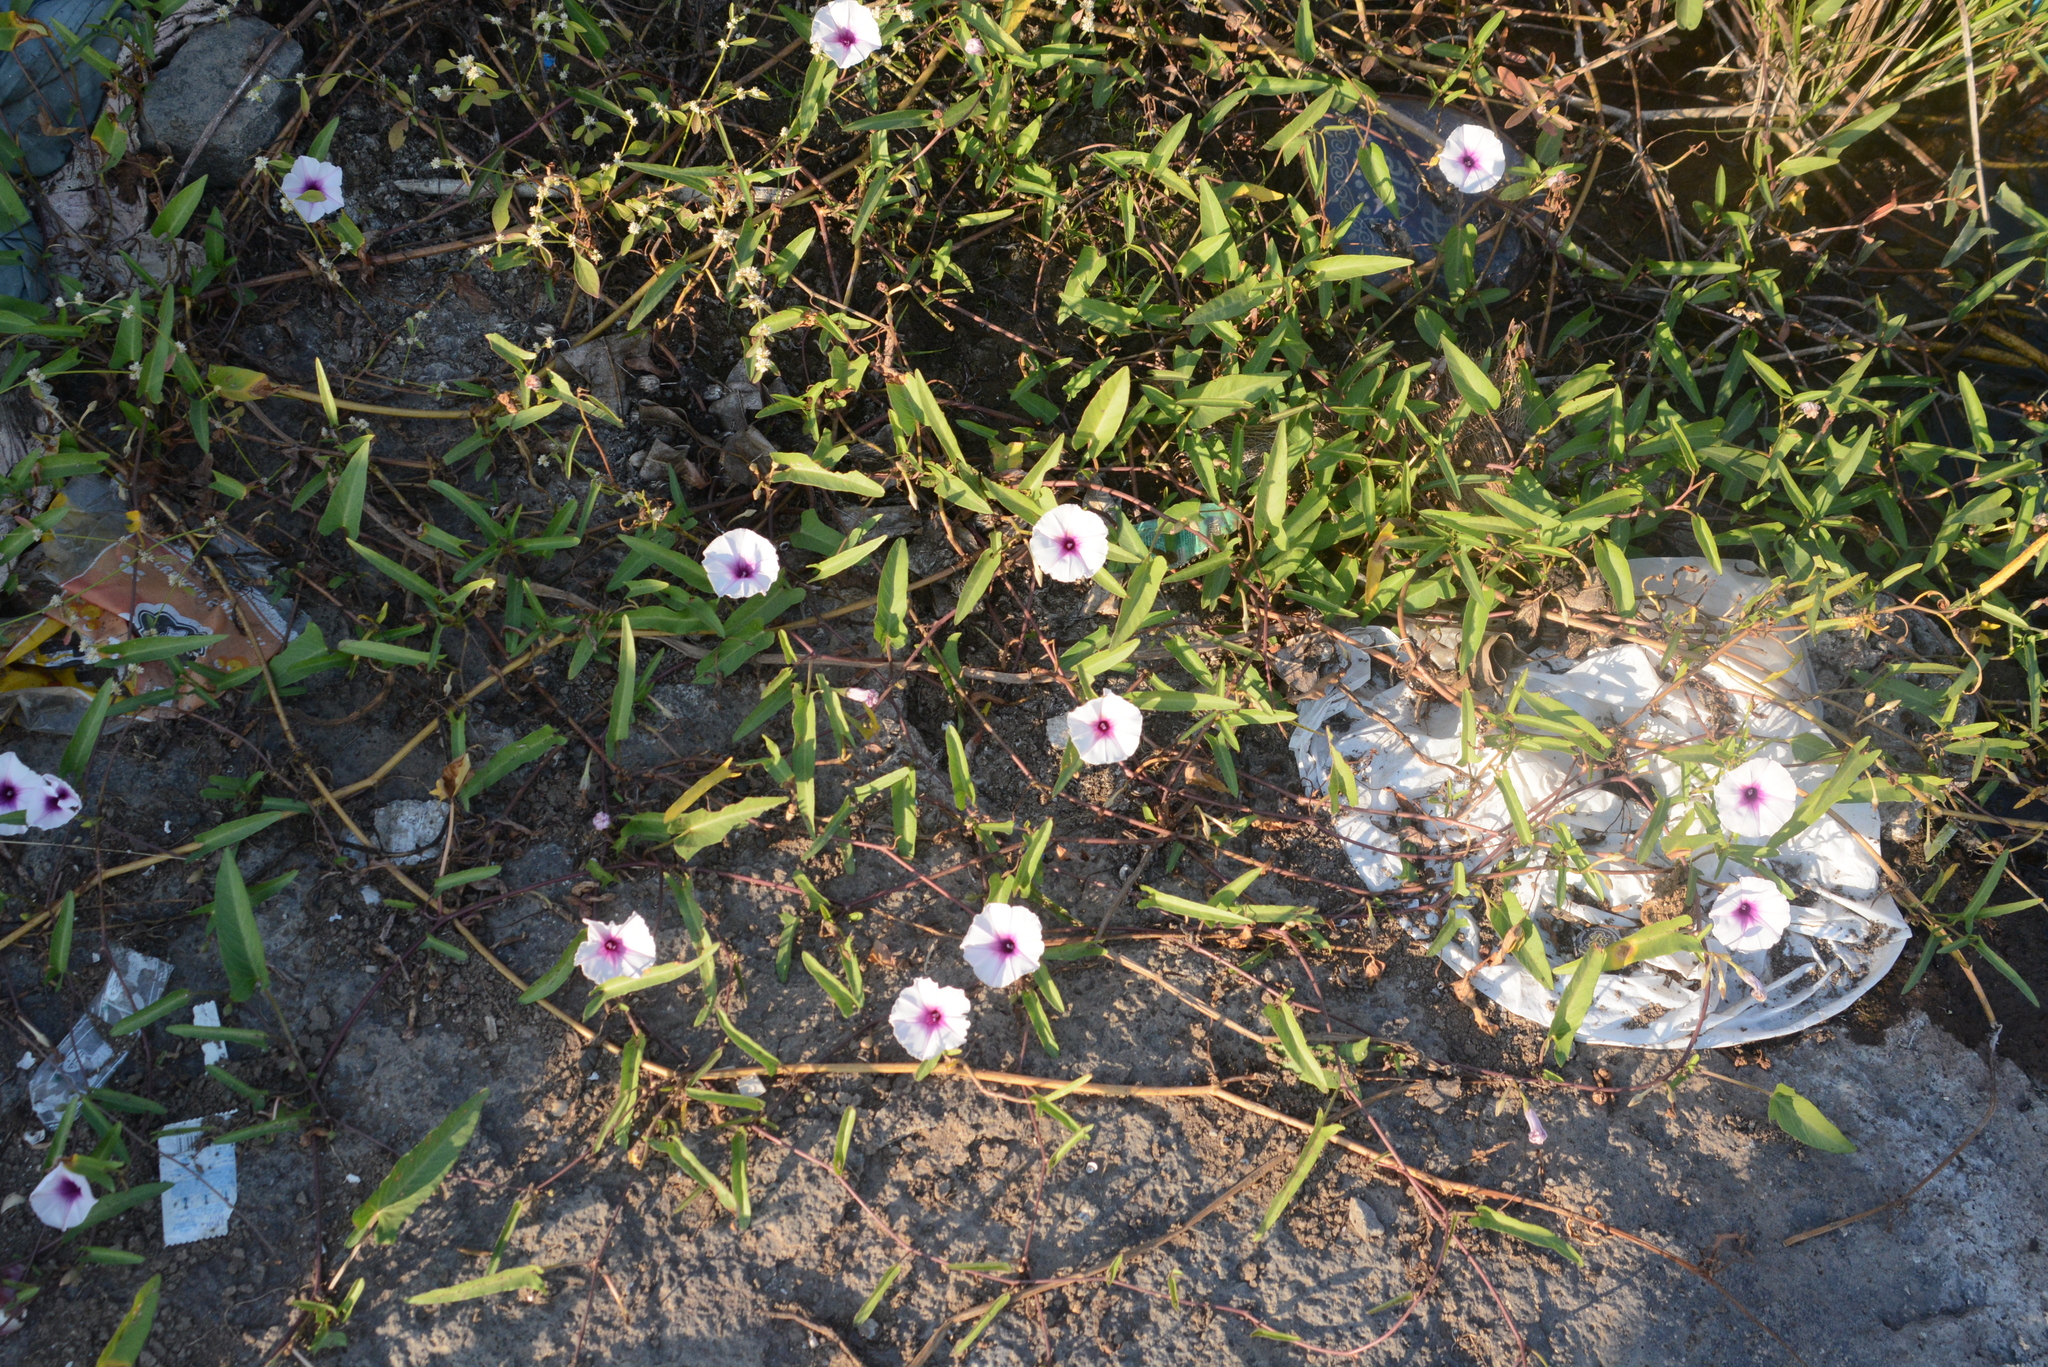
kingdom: Plantae
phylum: Tracheophyta
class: Magnoliopsida
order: Solanales
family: Convolvulaceae
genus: Ipomoea
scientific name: Ipomoea aquatica
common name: Swamp morning-glory
